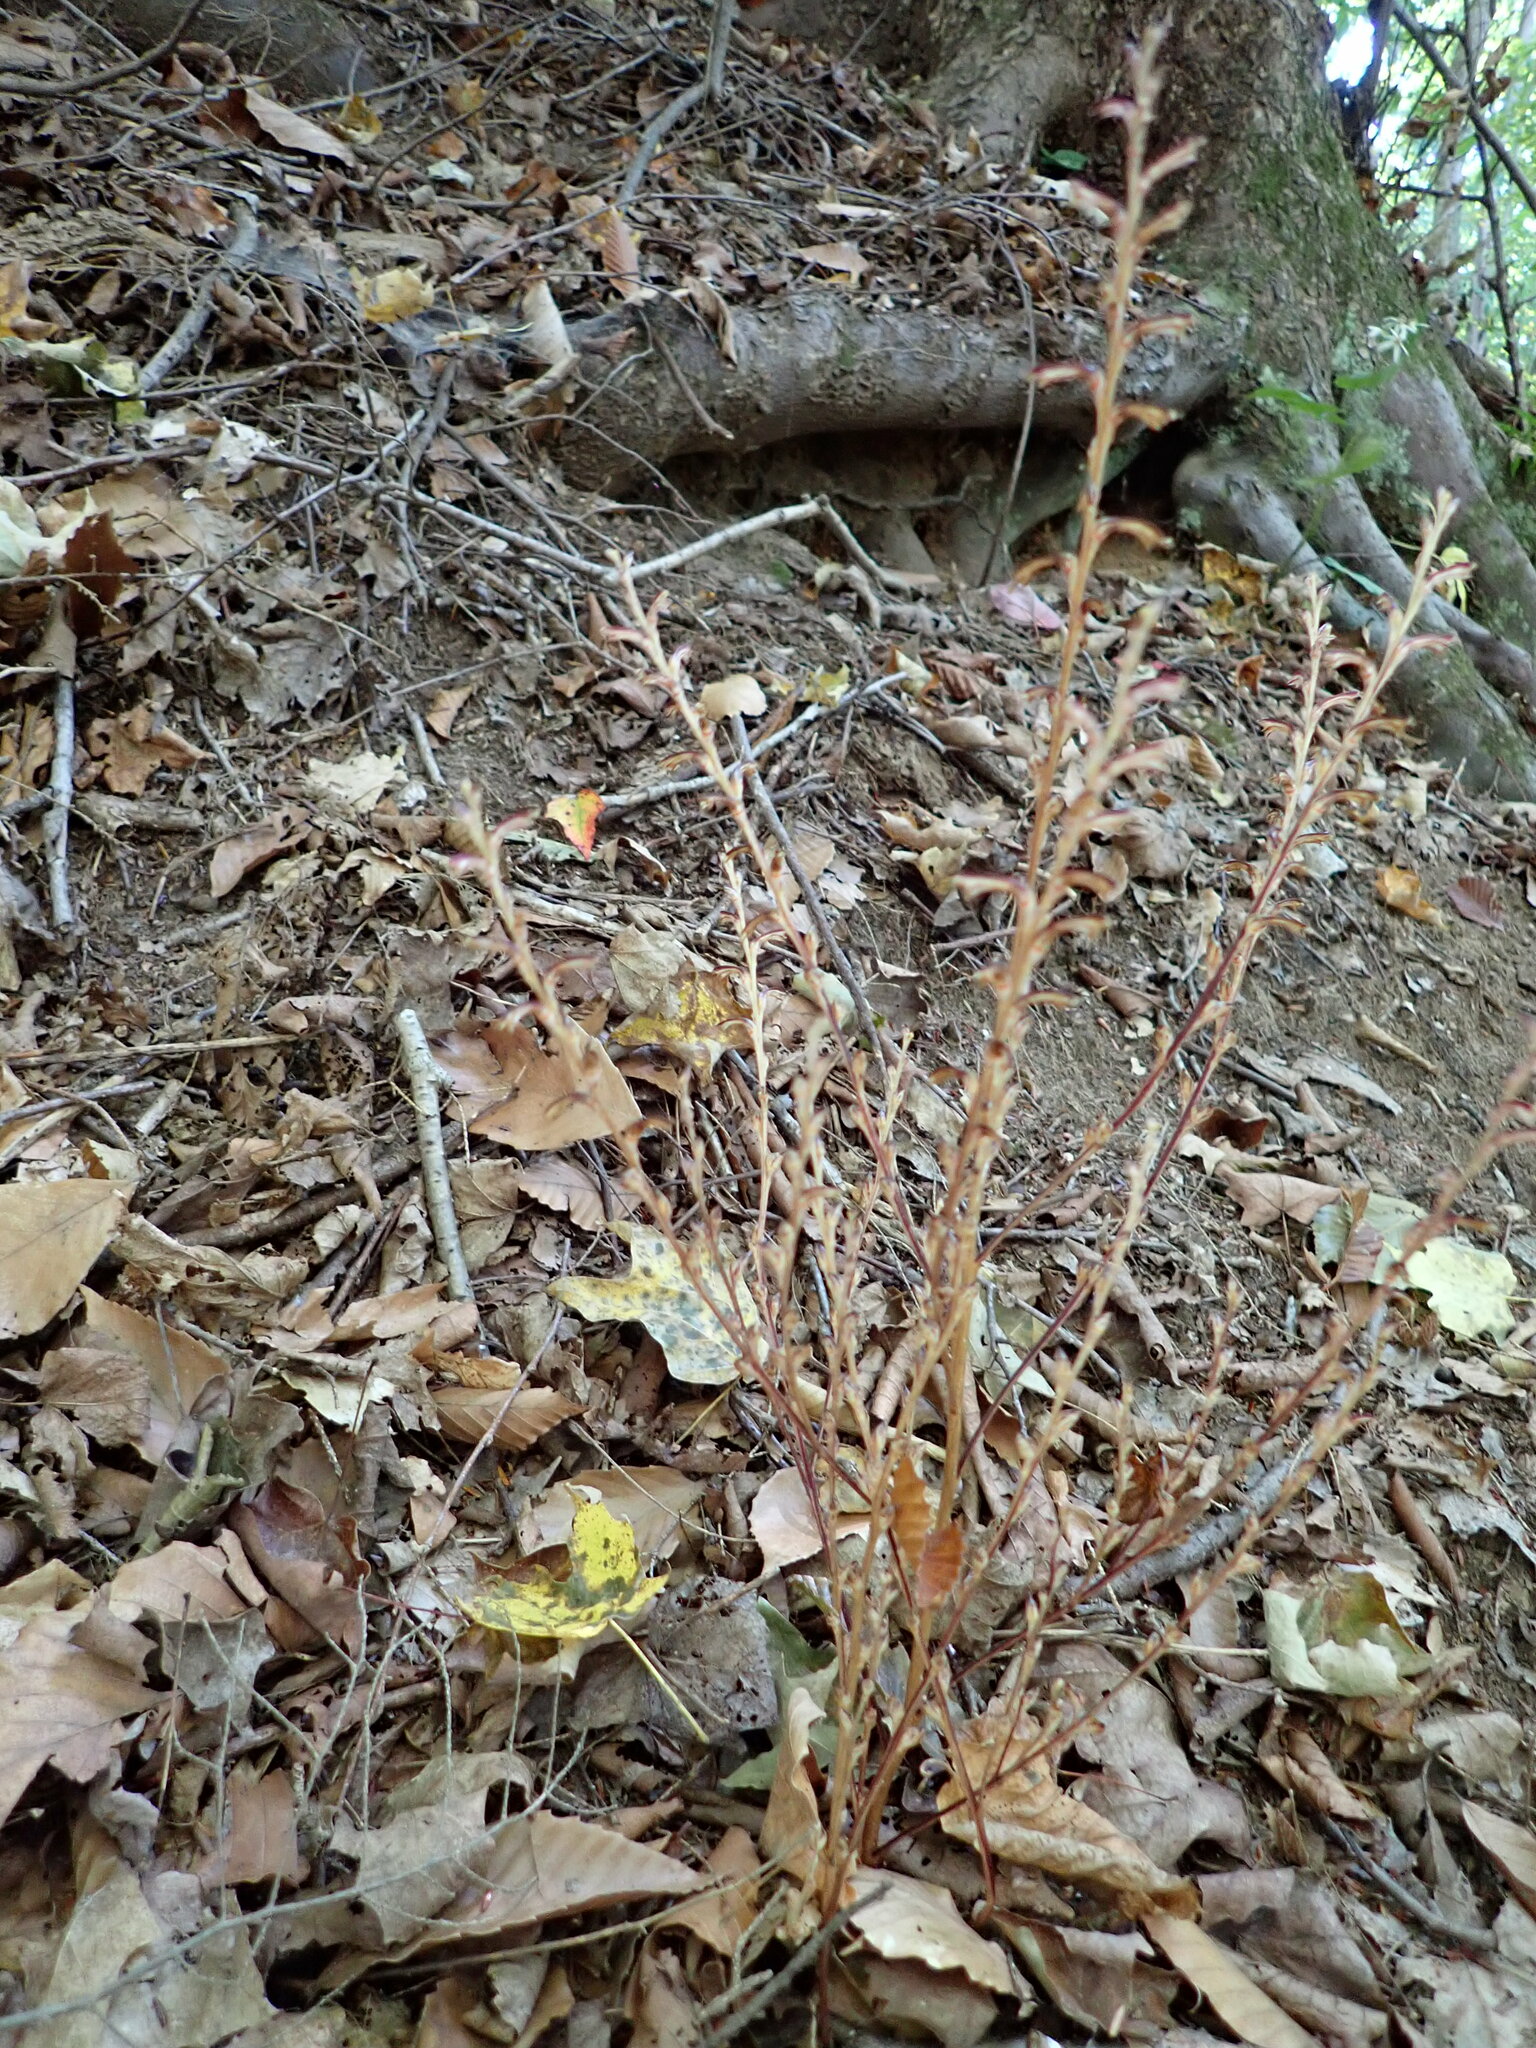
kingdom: Plantae
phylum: Tracheophyta
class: Magnoliopsida
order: Lamiales
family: Orobanchaceae
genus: Epifagus
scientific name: Epifagus virginiana
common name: Beechdrops
